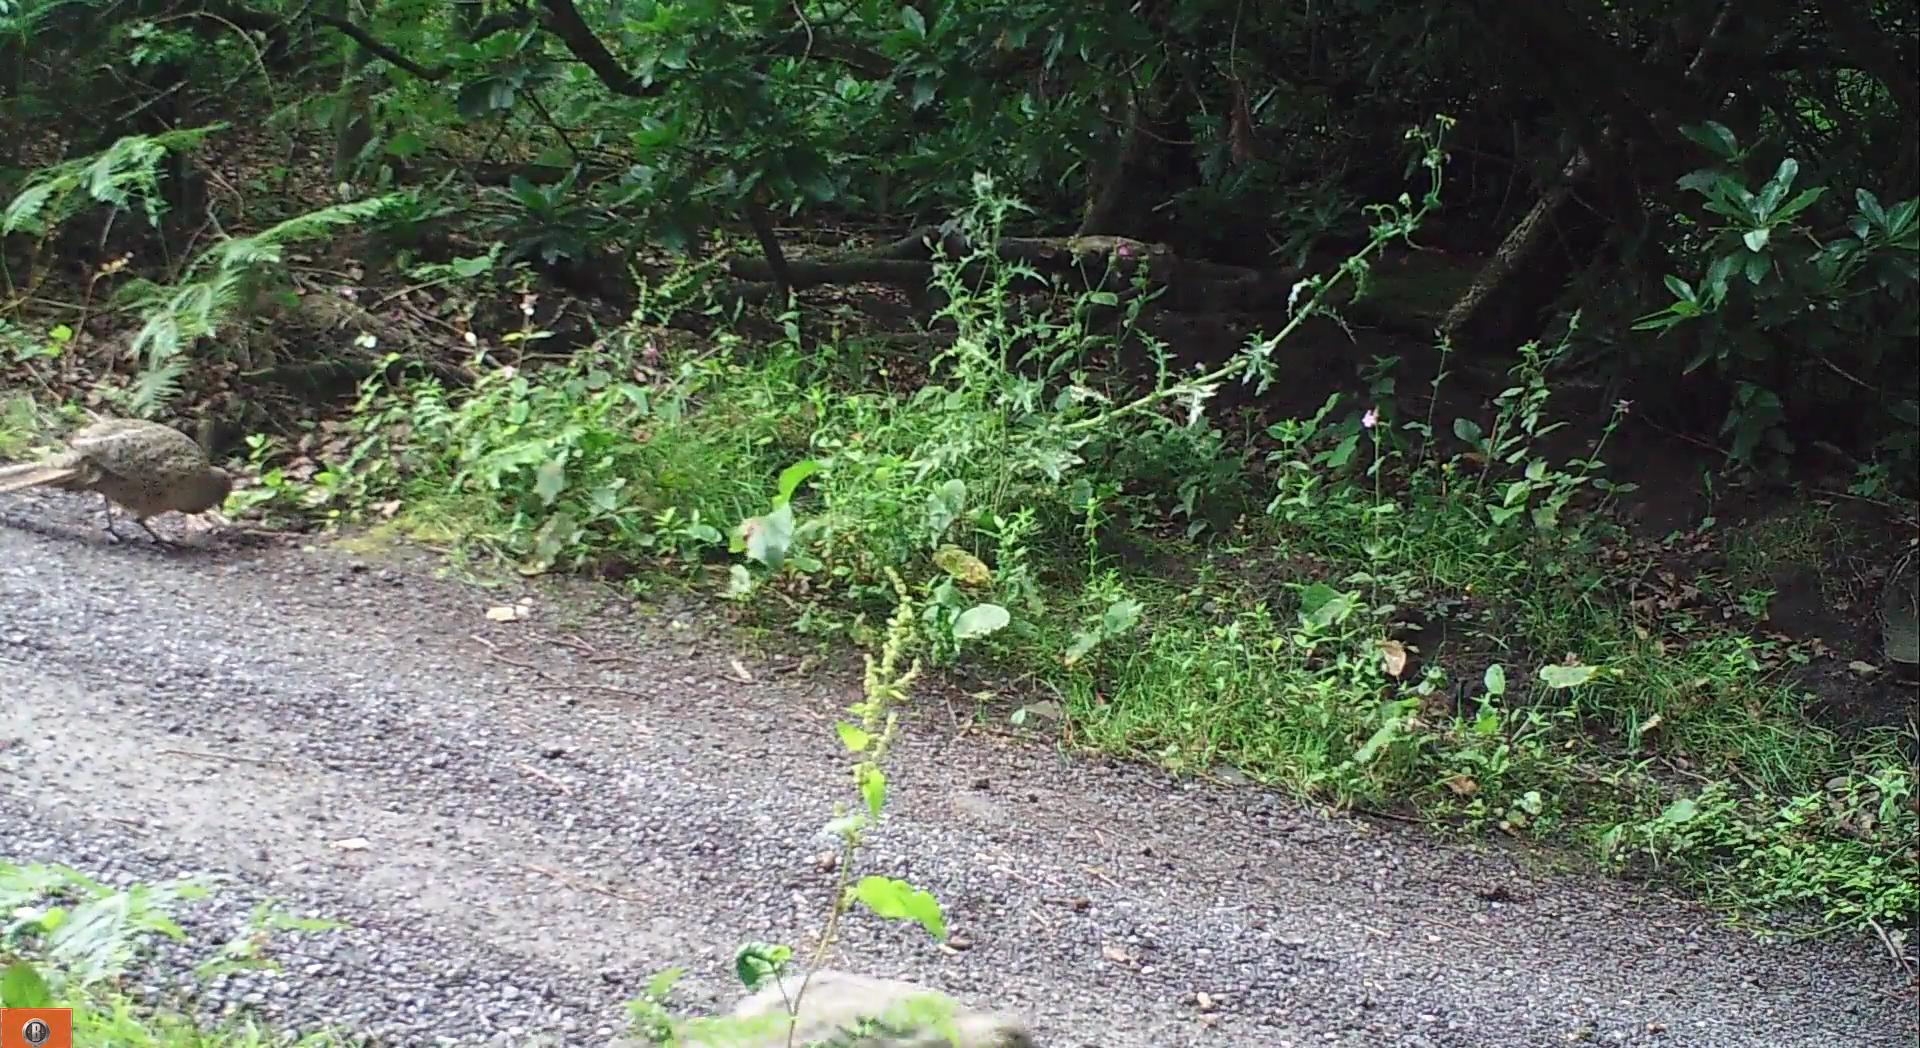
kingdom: Animalia
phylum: Chordata
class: Aves
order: Galliformes
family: Phasianidae
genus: Phasianus
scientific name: Phasianus colchicus
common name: Common pheasant
